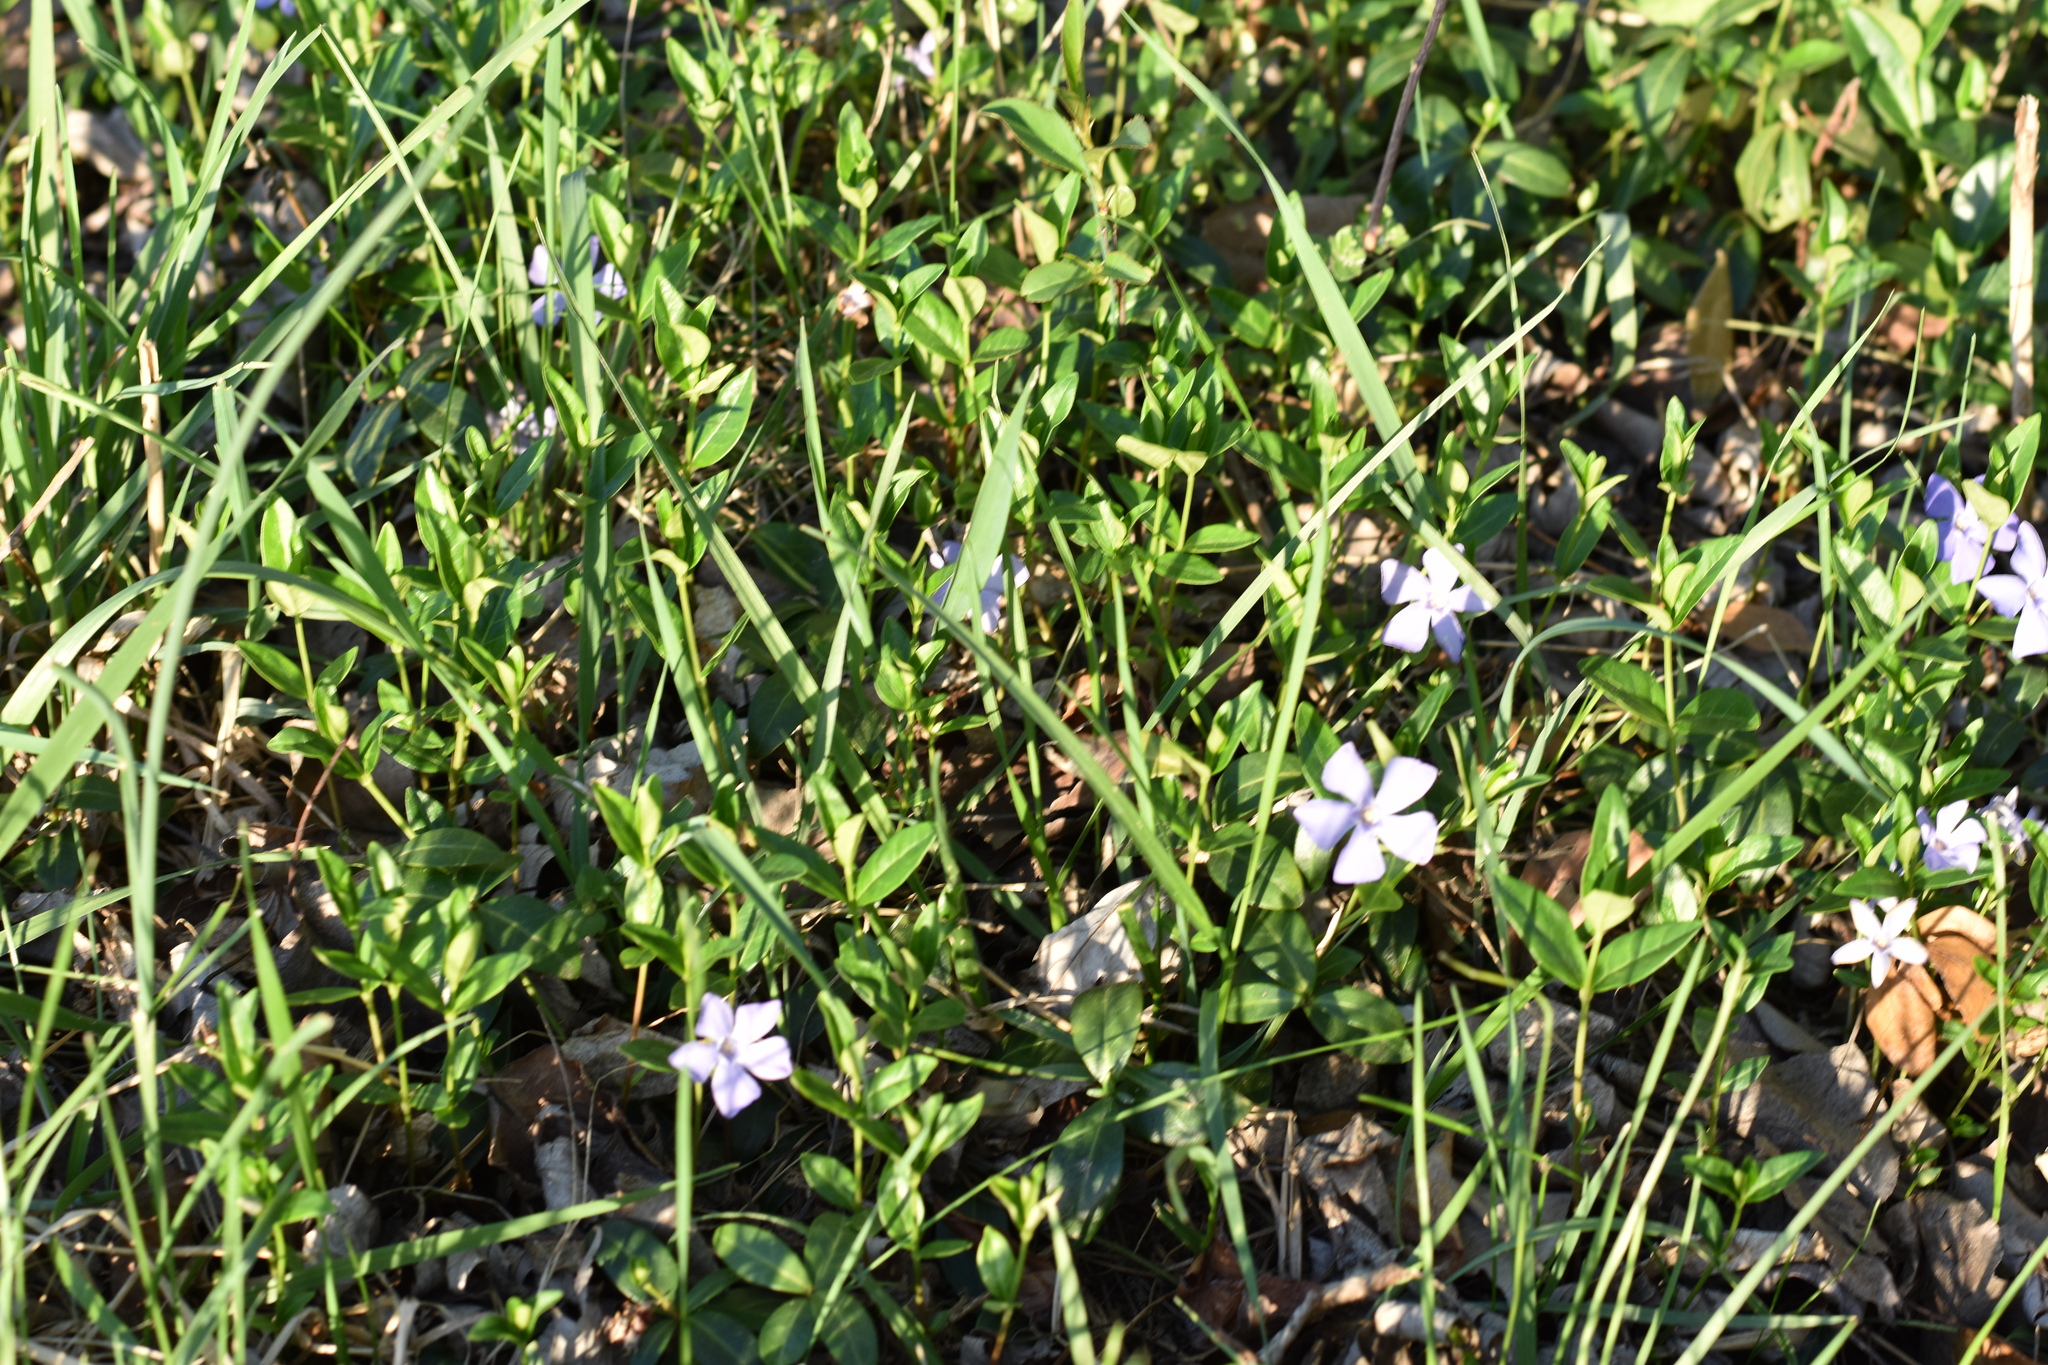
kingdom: Plantae
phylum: Tracheophyta
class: Magnoliopsida
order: Gentianales
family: Apocynaceae
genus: Vinca
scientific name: Vinca minor
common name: Lesser periwinkle
